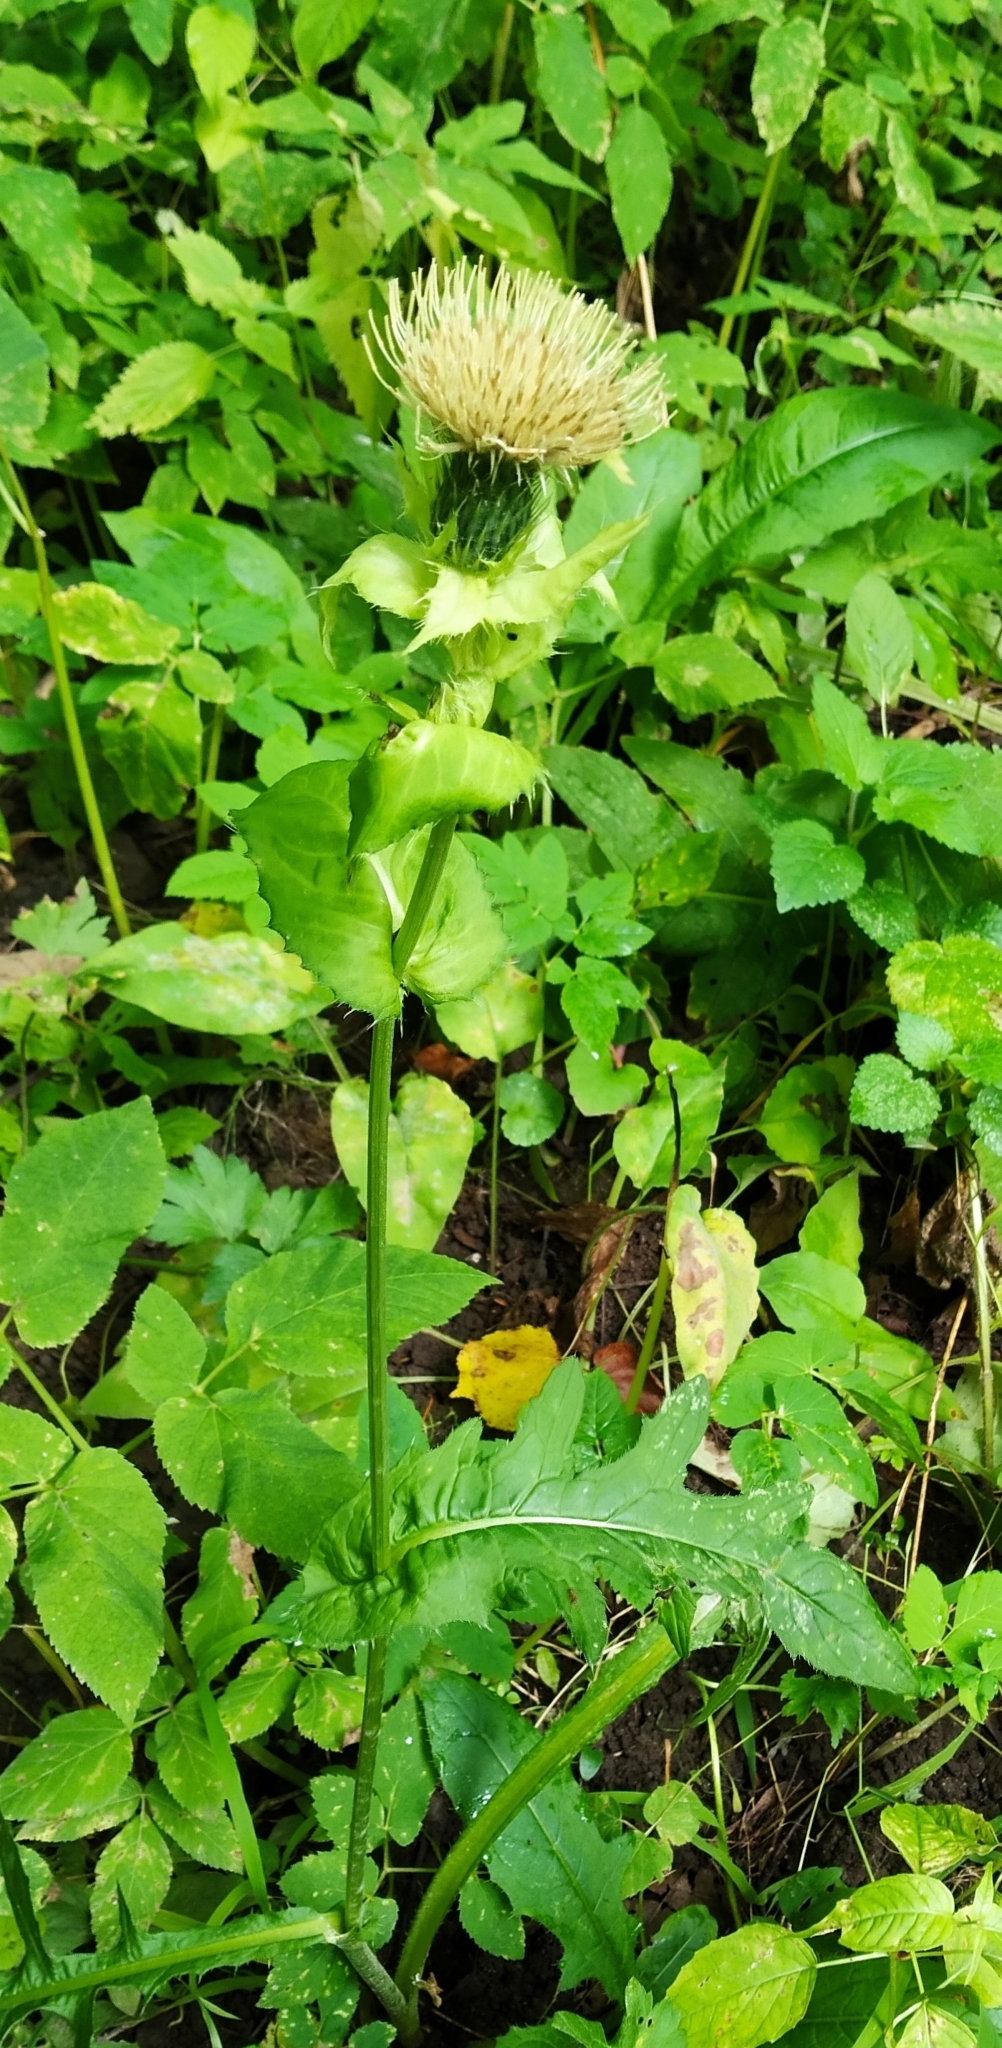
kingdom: Plantae
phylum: Tracheophyta
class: Magnoliopsida
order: Asterales
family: Asteraceae
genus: Cirsium
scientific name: Cirsium oleraceum
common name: Cabbage thistle
